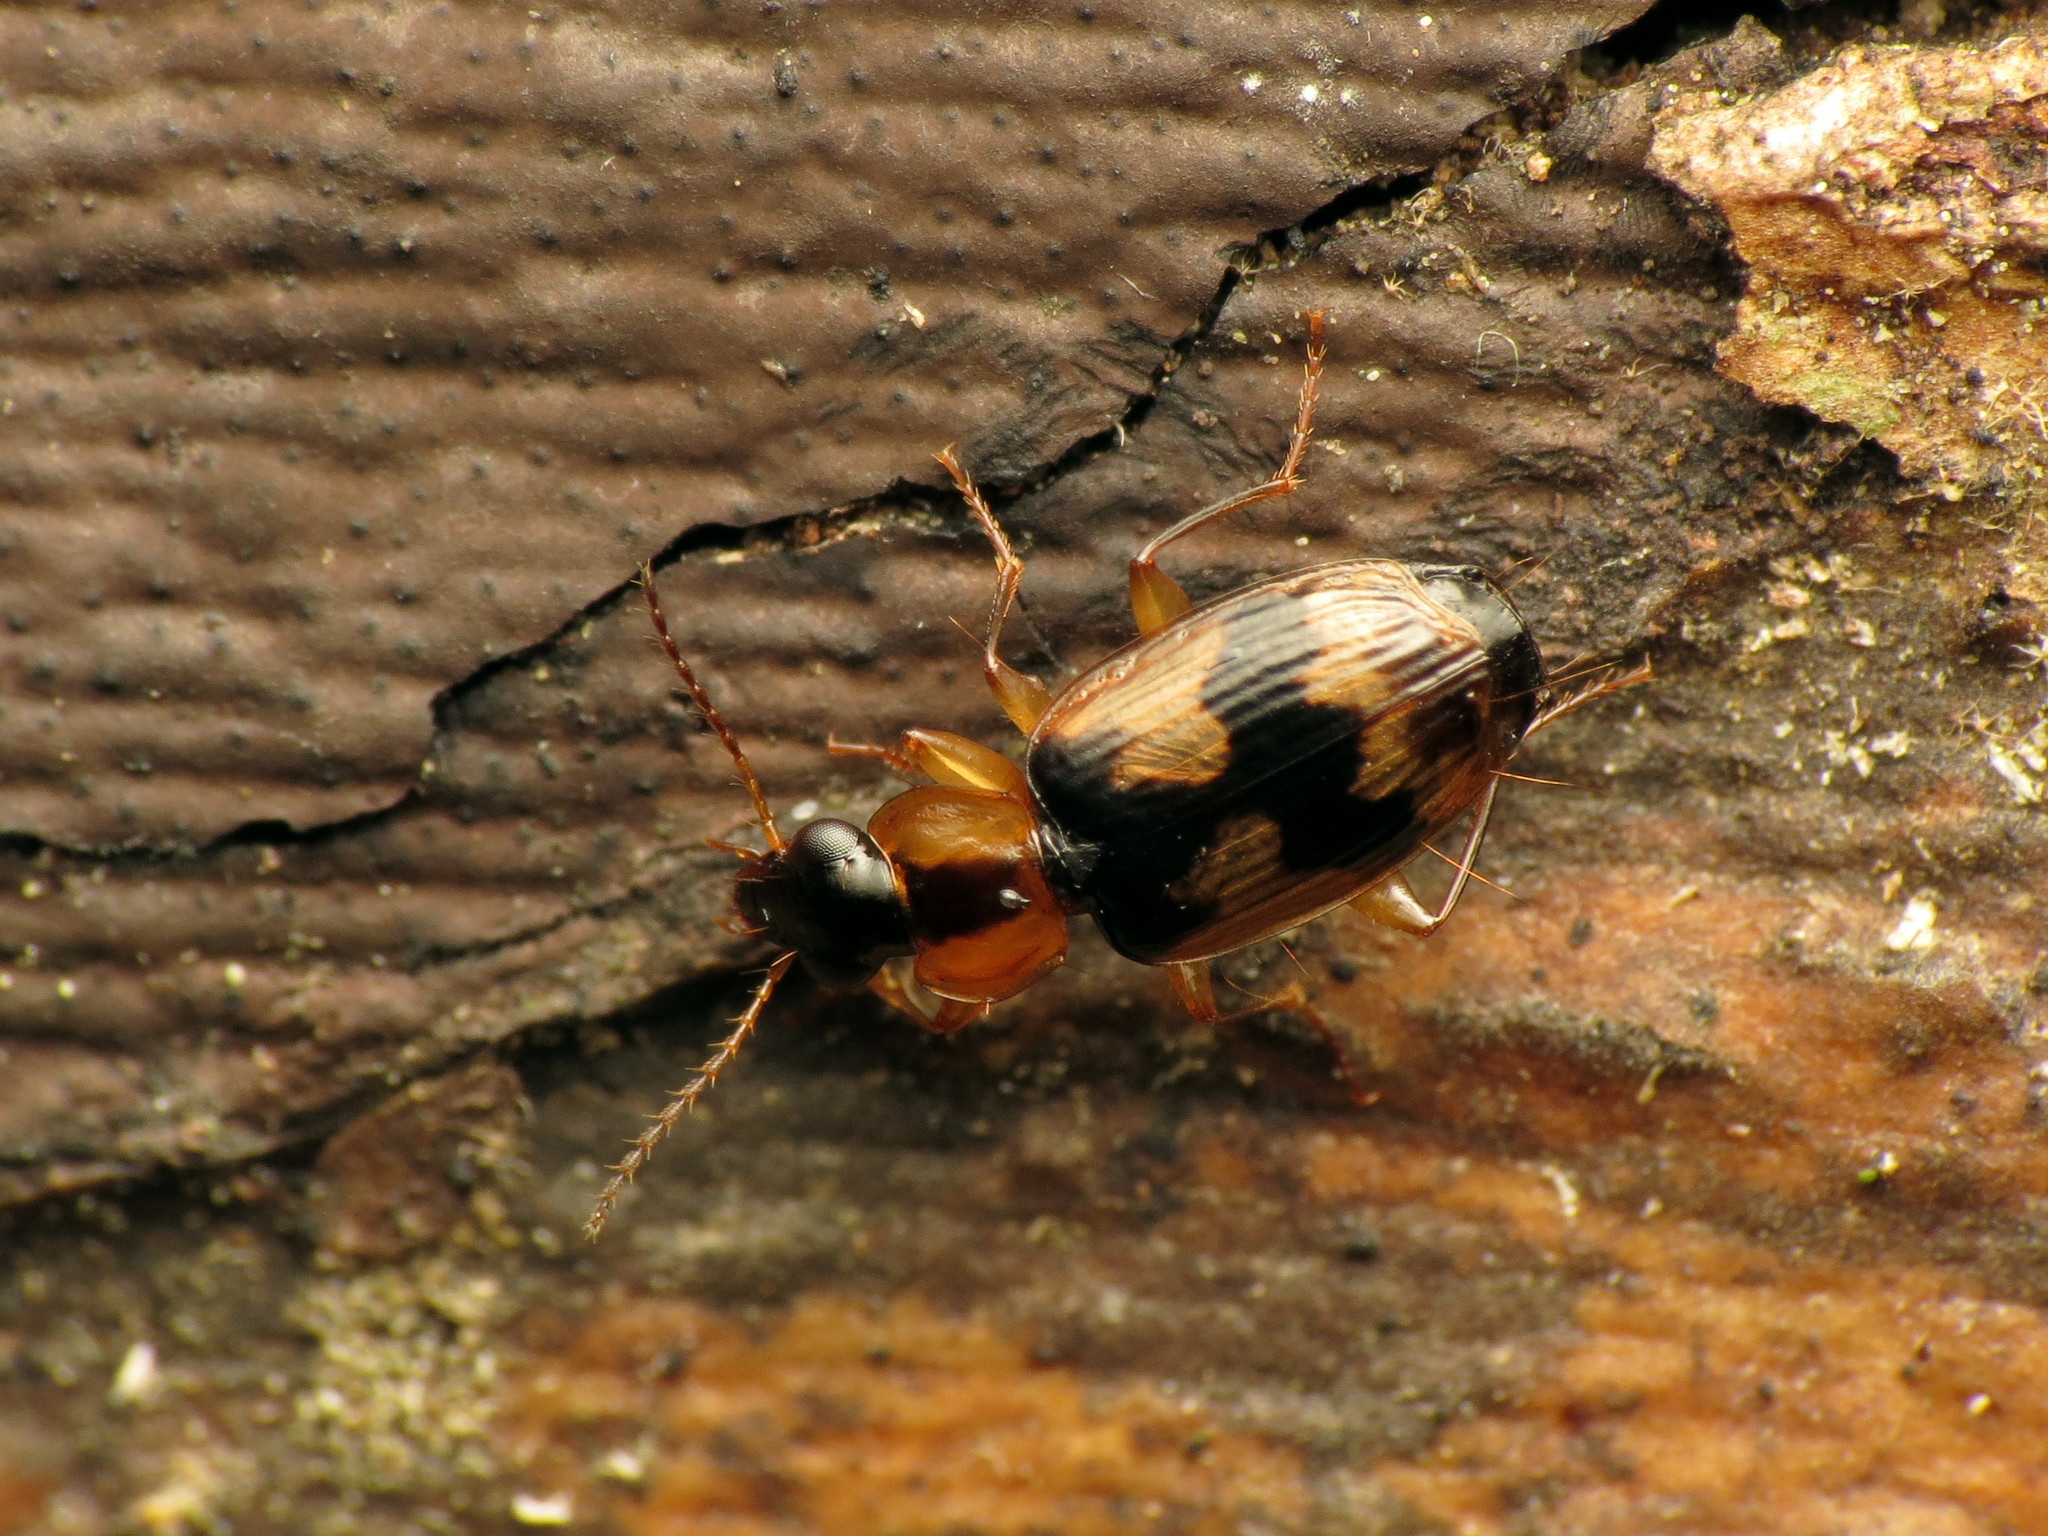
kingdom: Animalia
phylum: Arthropoda
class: Insecta
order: Coleoptera
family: Carabidae
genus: Phloeoxena
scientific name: Phloeoxena signata
